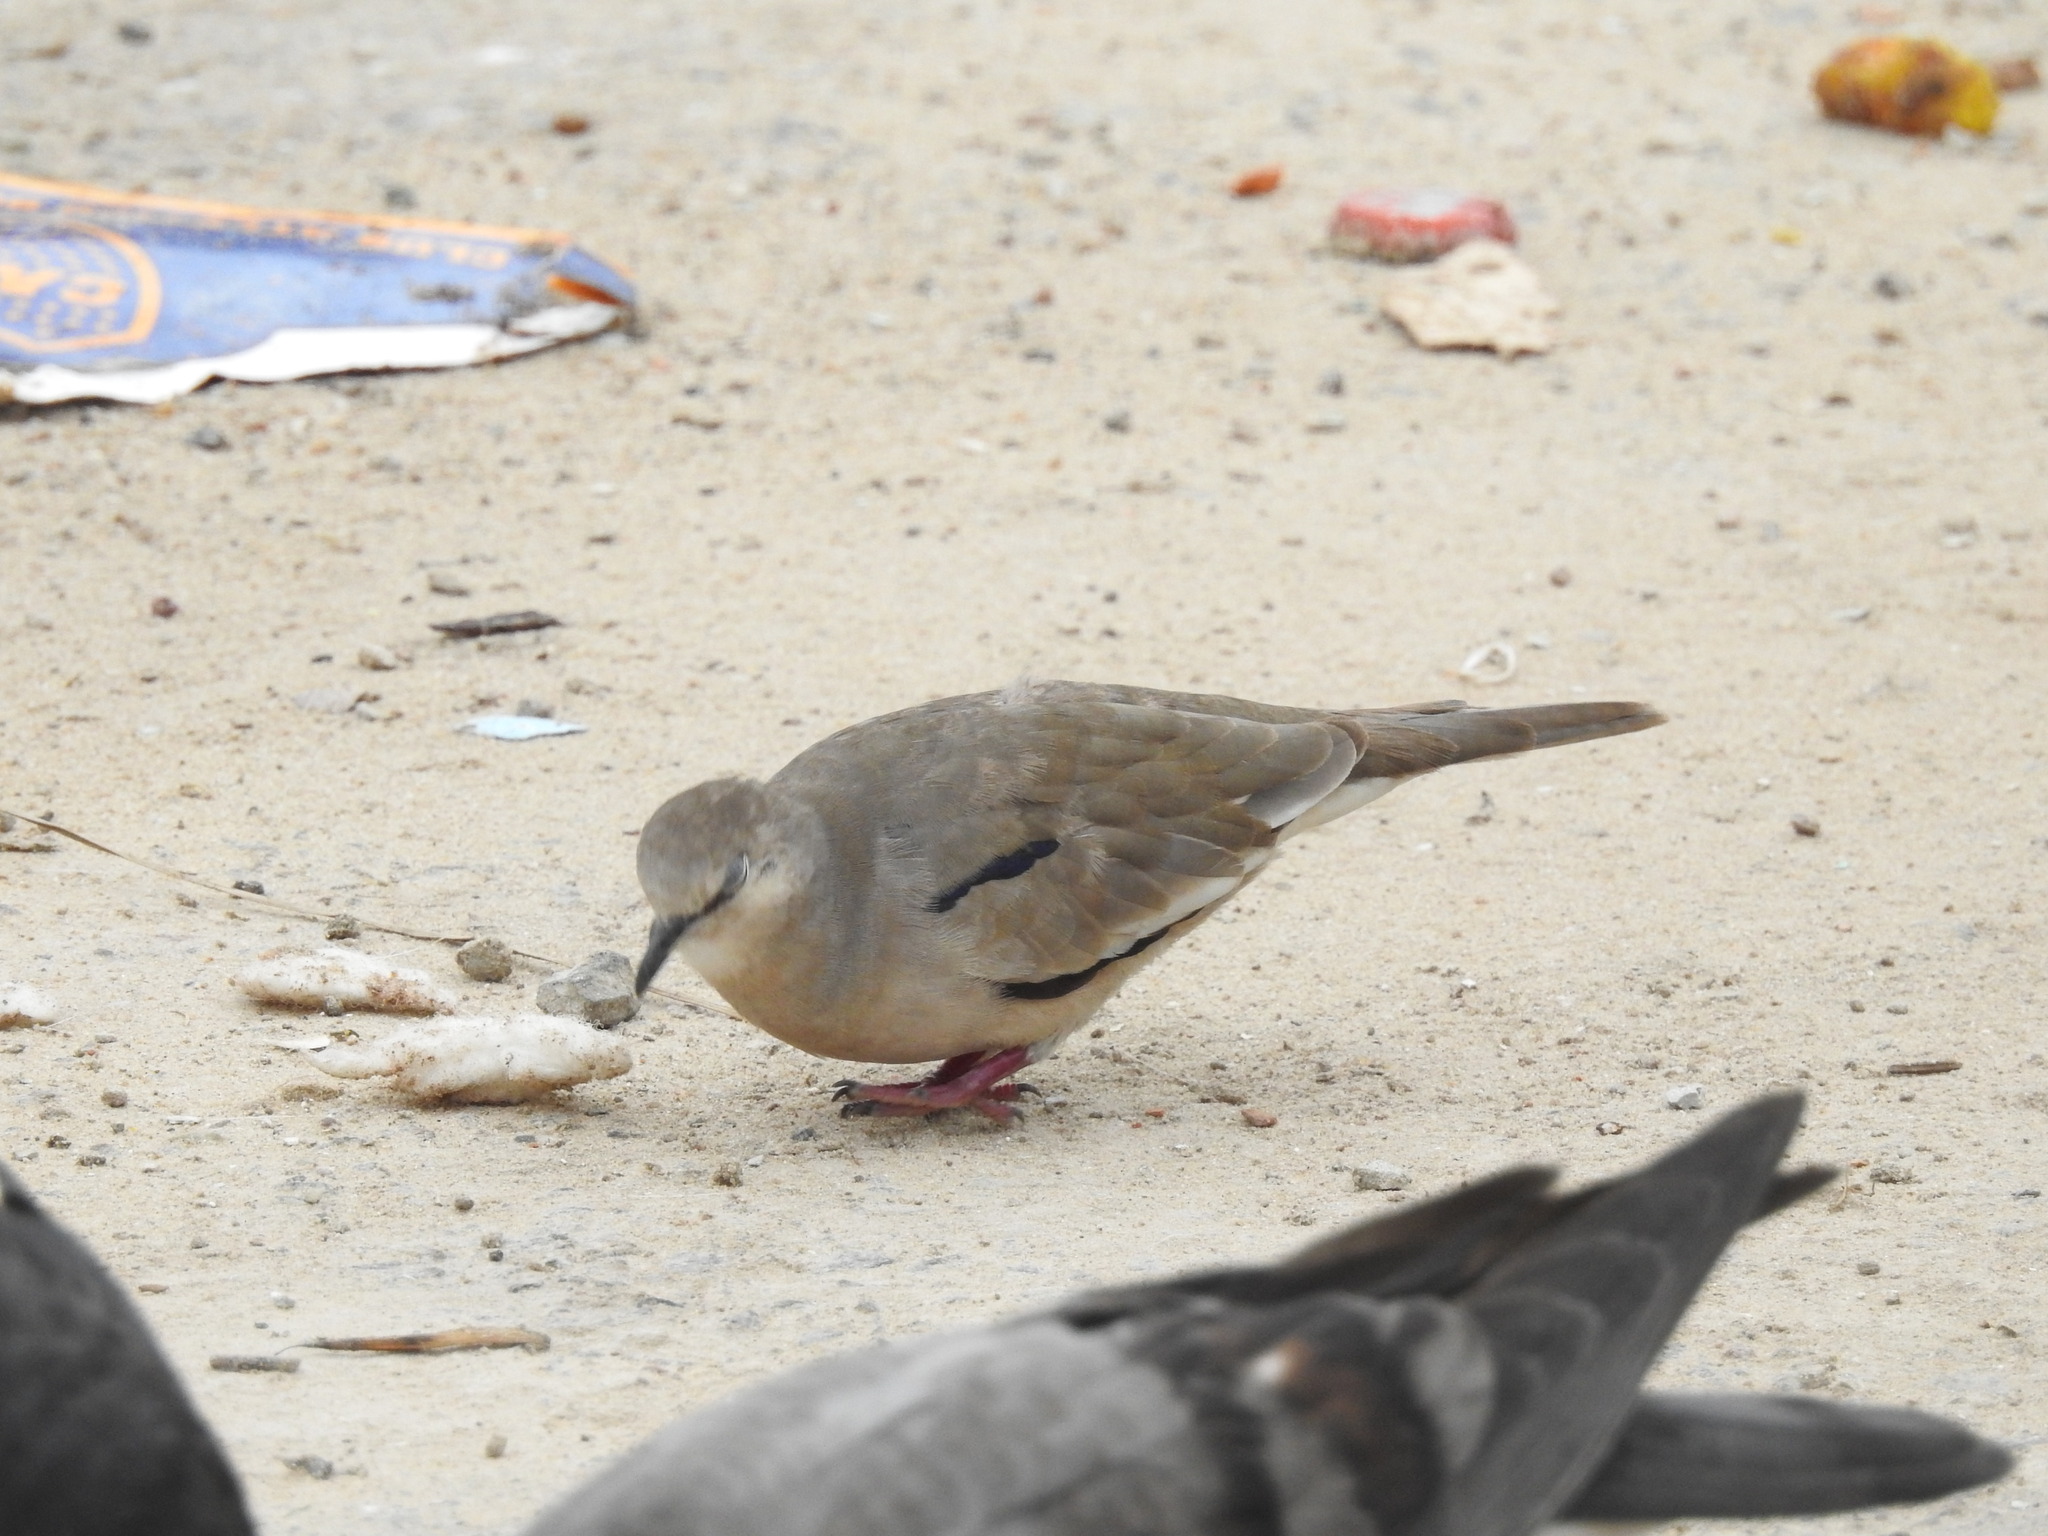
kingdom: Animalia
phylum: Chordata
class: Aves
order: Columbiformes
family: Columbidae
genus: Columbina
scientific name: Columbina picui
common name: Picui ground dove
